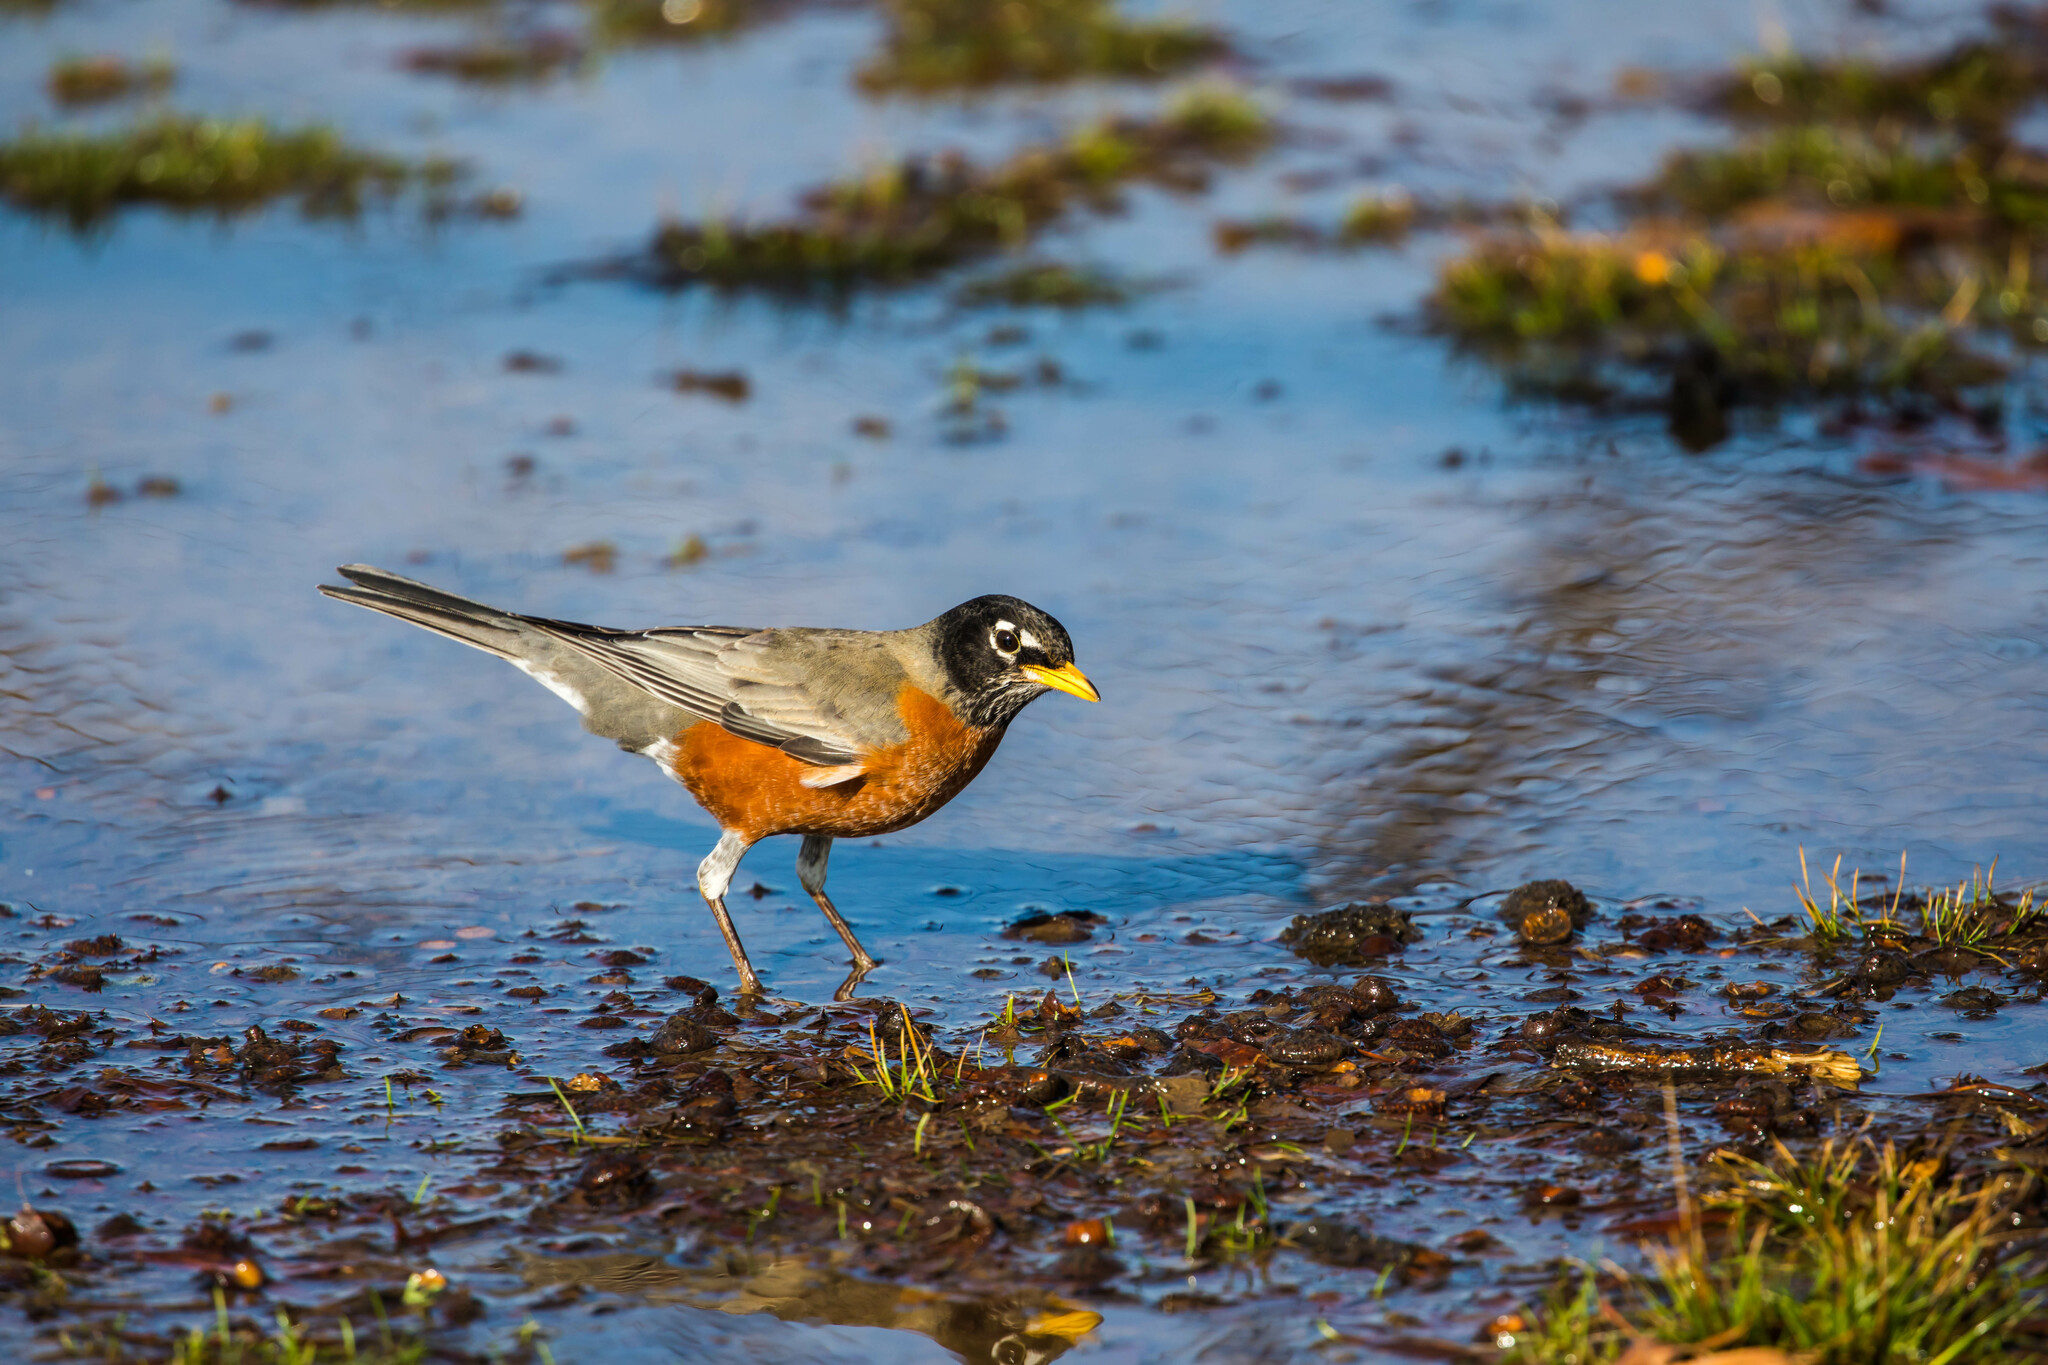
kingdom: Animalia
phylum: Chordata
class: Aves
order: Passeriformes
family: Turdidae
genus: Turdus
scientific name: Turdus migratorius
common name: American robin
